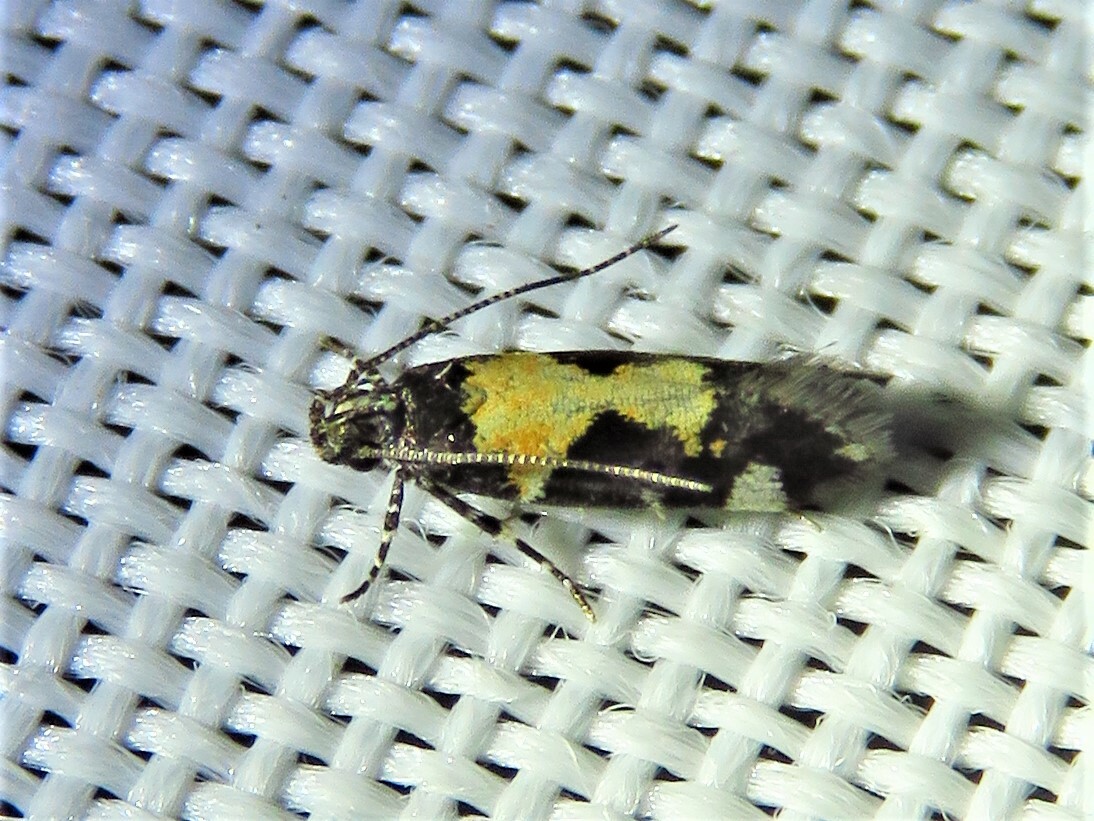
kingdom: Animalia
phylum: Arthropoda
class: Insecta
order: Lepidoptera
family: Gelechiidae
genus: Stegasta
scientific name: Stegasta bosqueella
